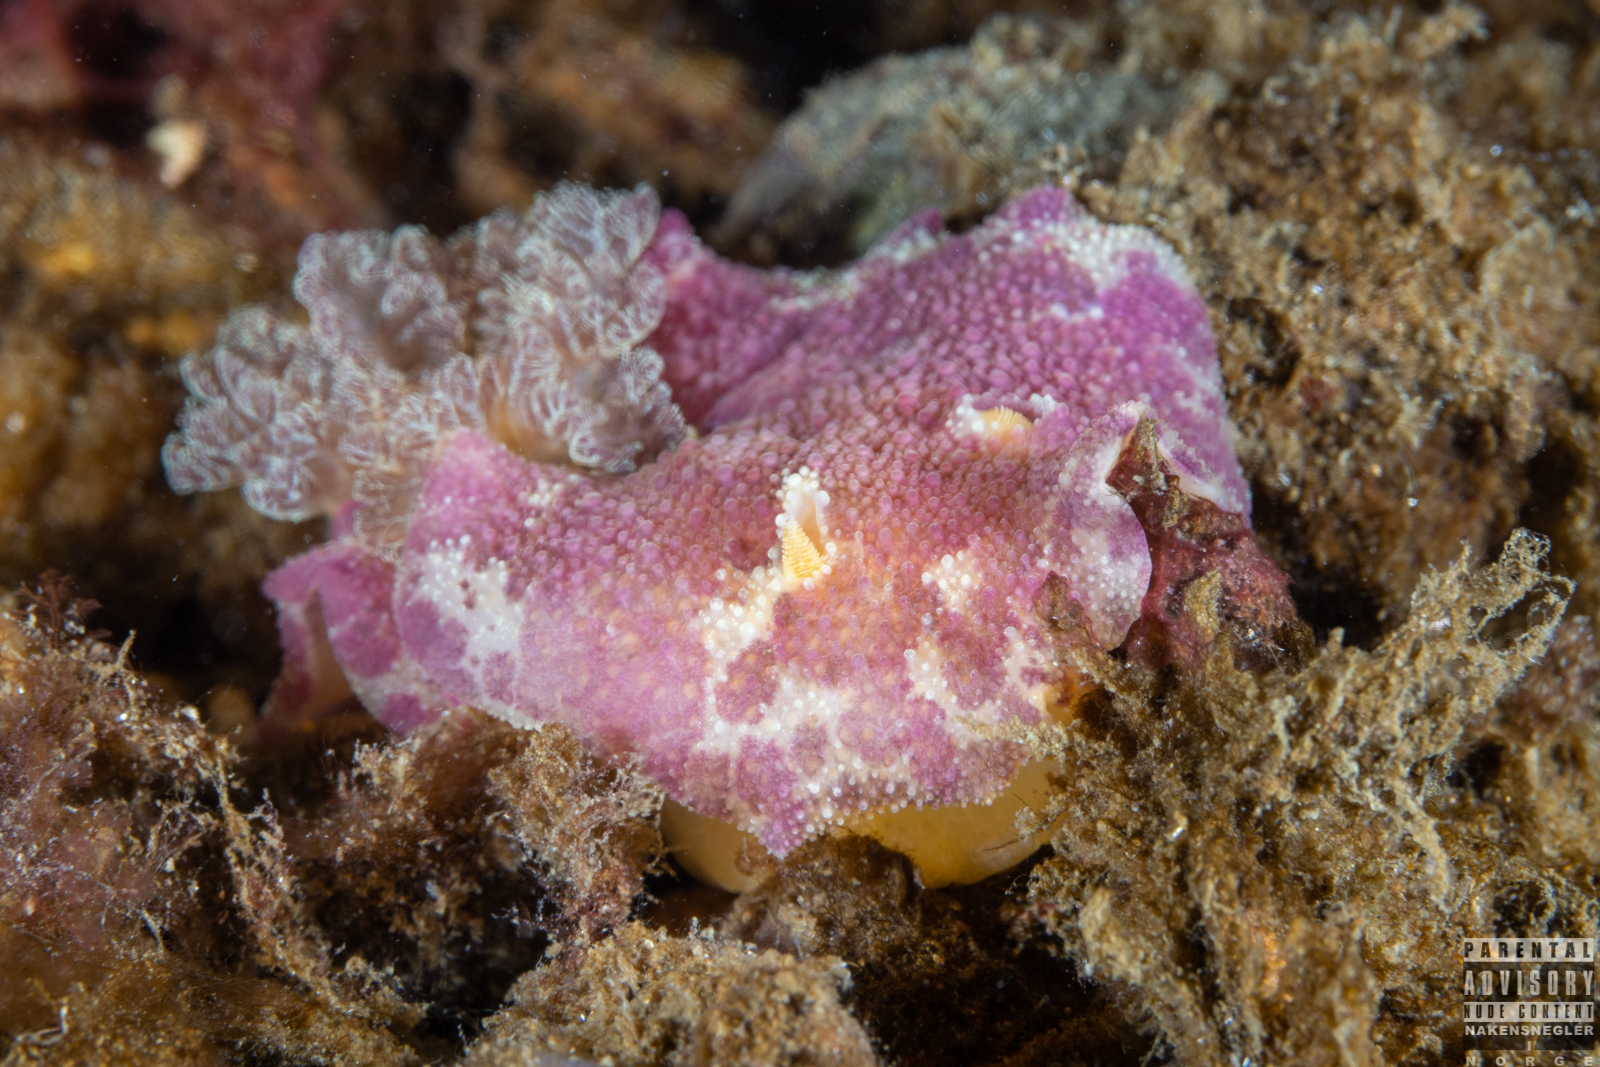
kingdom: Animalia
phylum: Mollusca
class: Gastropoda
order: Nudibranchia
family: Dorididae
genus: Doris
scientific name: Doris pseudoargus
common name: Sea lemon
